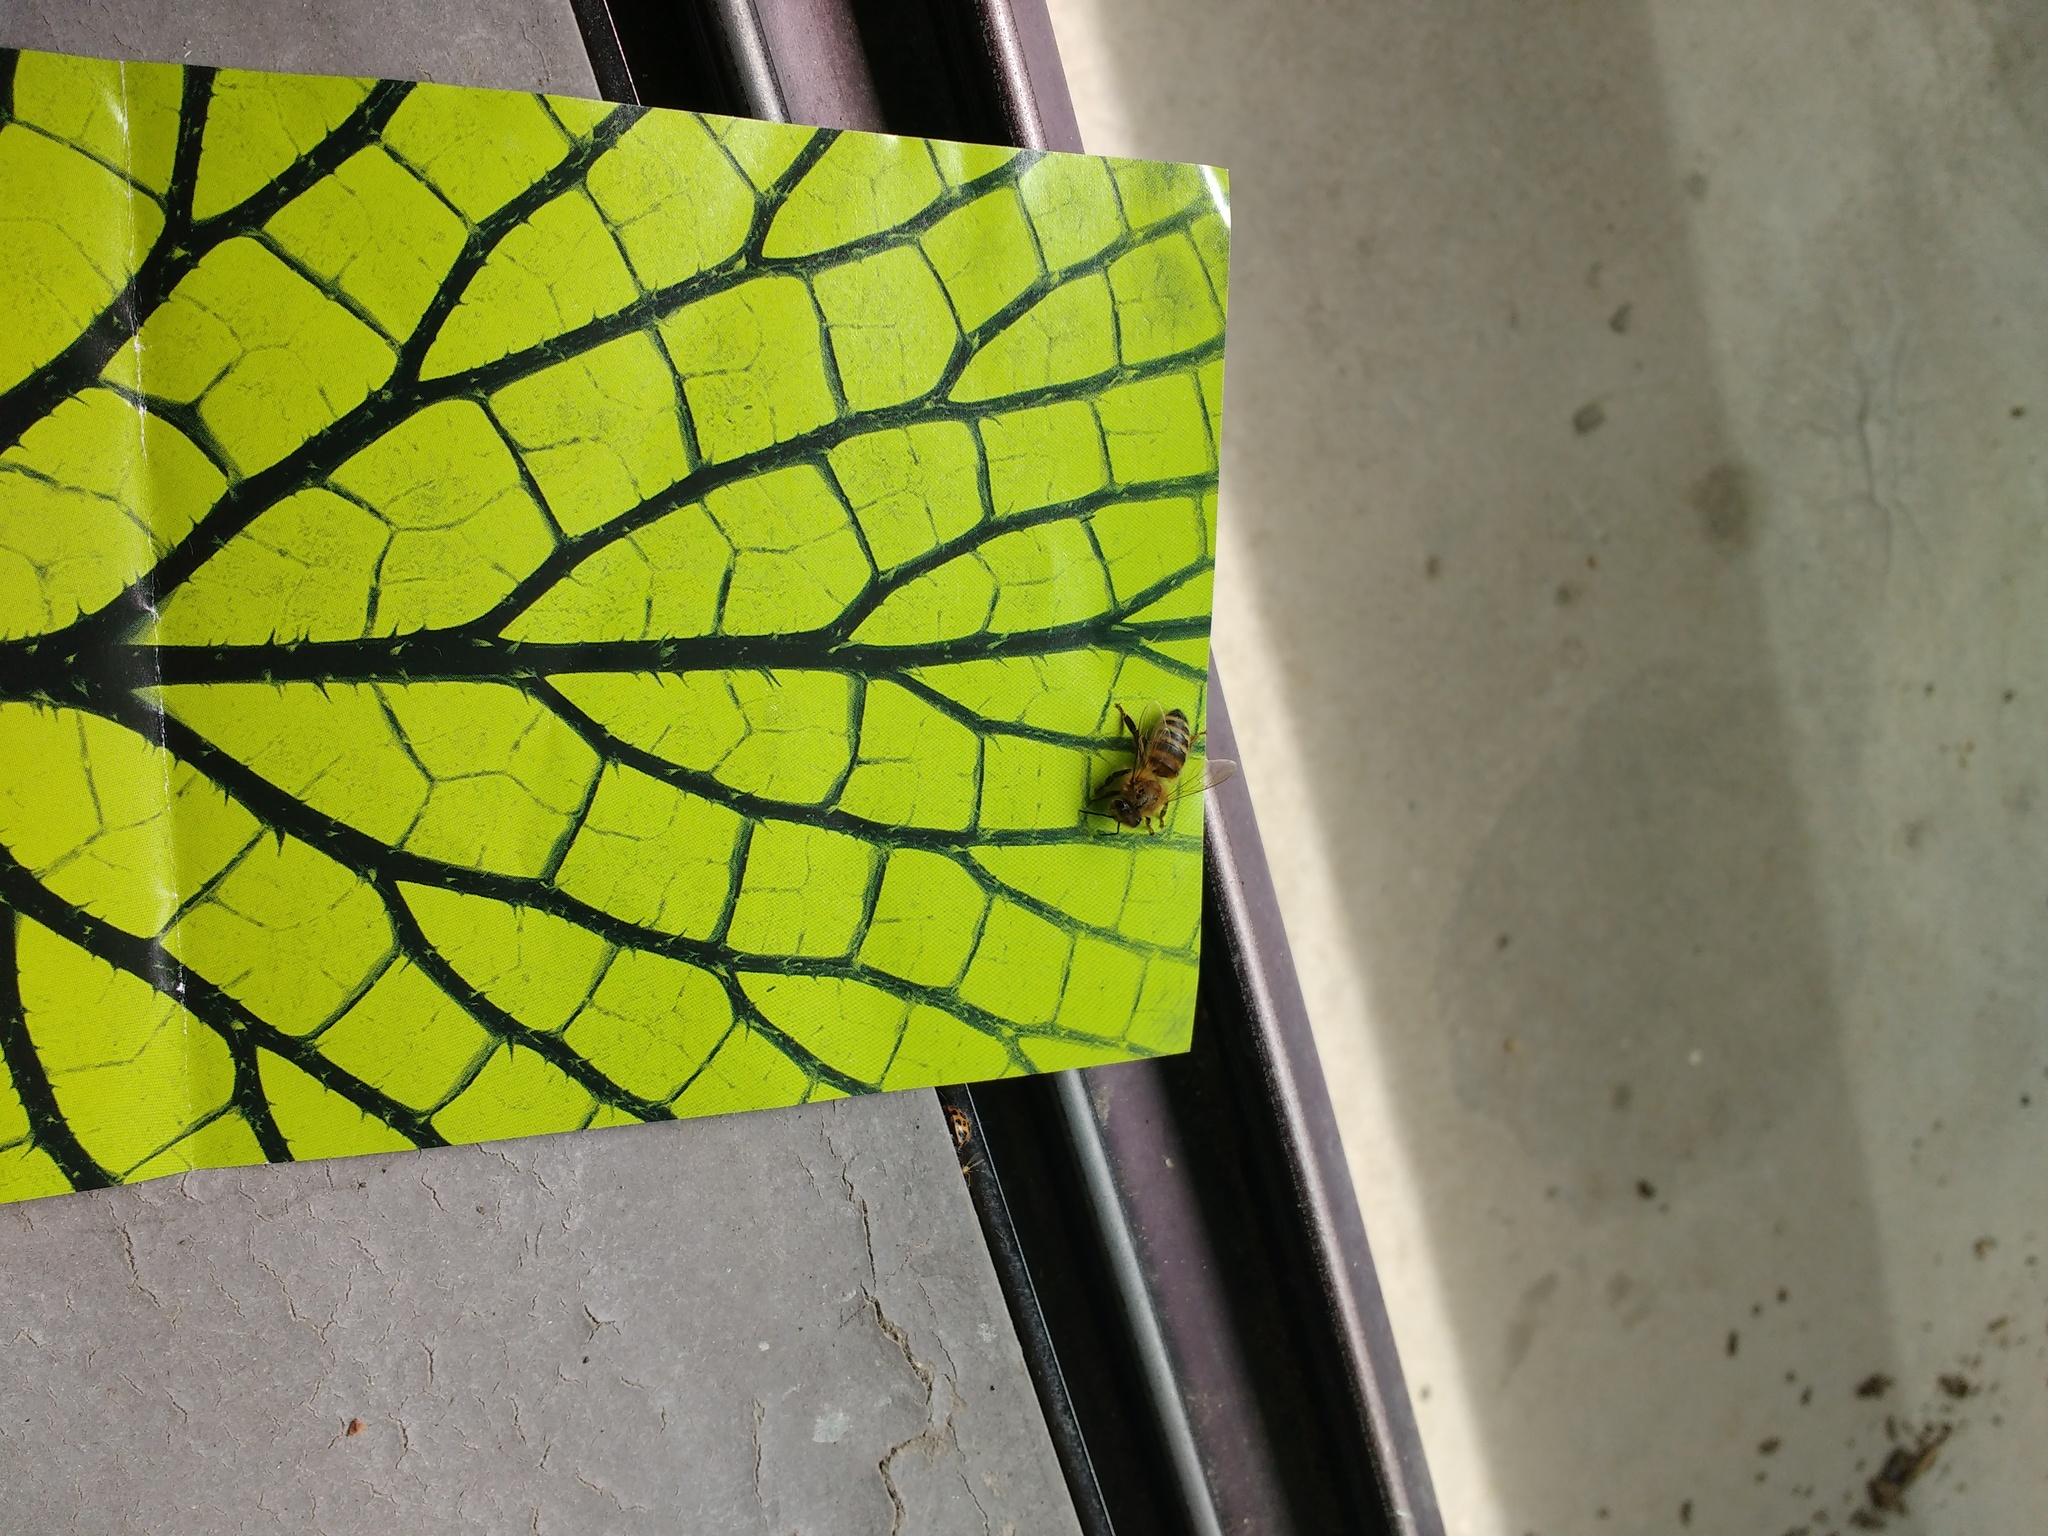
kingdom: Animalia
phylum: Arthropoda
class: Insecta
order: Hymenoptera
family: Apidae
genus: Apis
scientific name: Apis mellifera
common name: Honey bee
